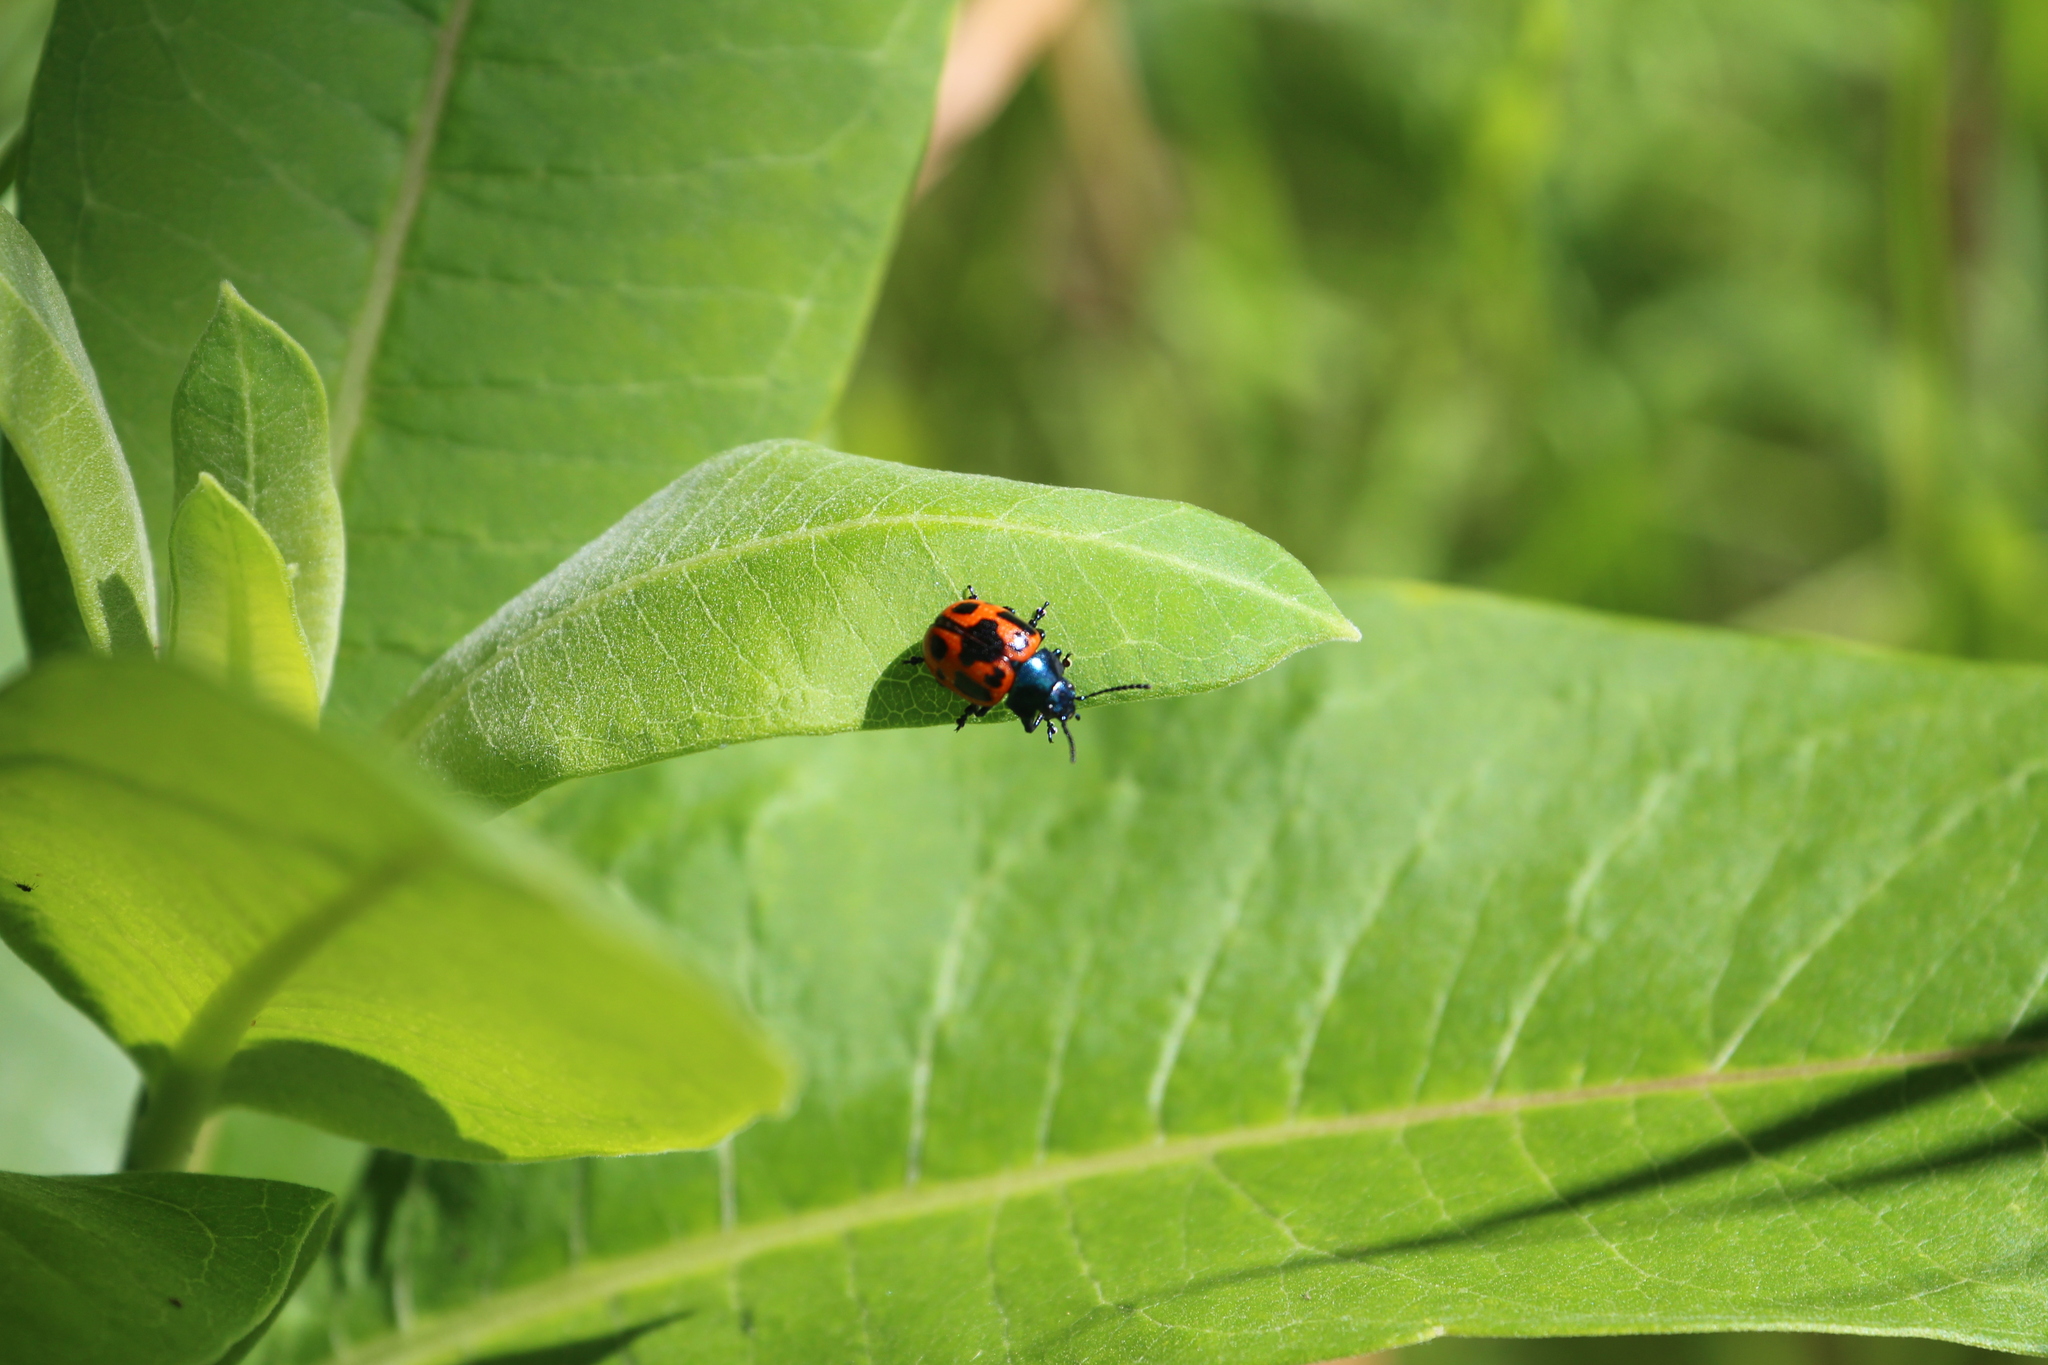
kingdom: Animalia
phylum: Arthropoda
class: Insecta
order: Coleoptera
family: Chrysomelidae
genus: Labidomera
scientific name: Labidomera clivicollis
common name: Swamp milkweed leaf beetle
